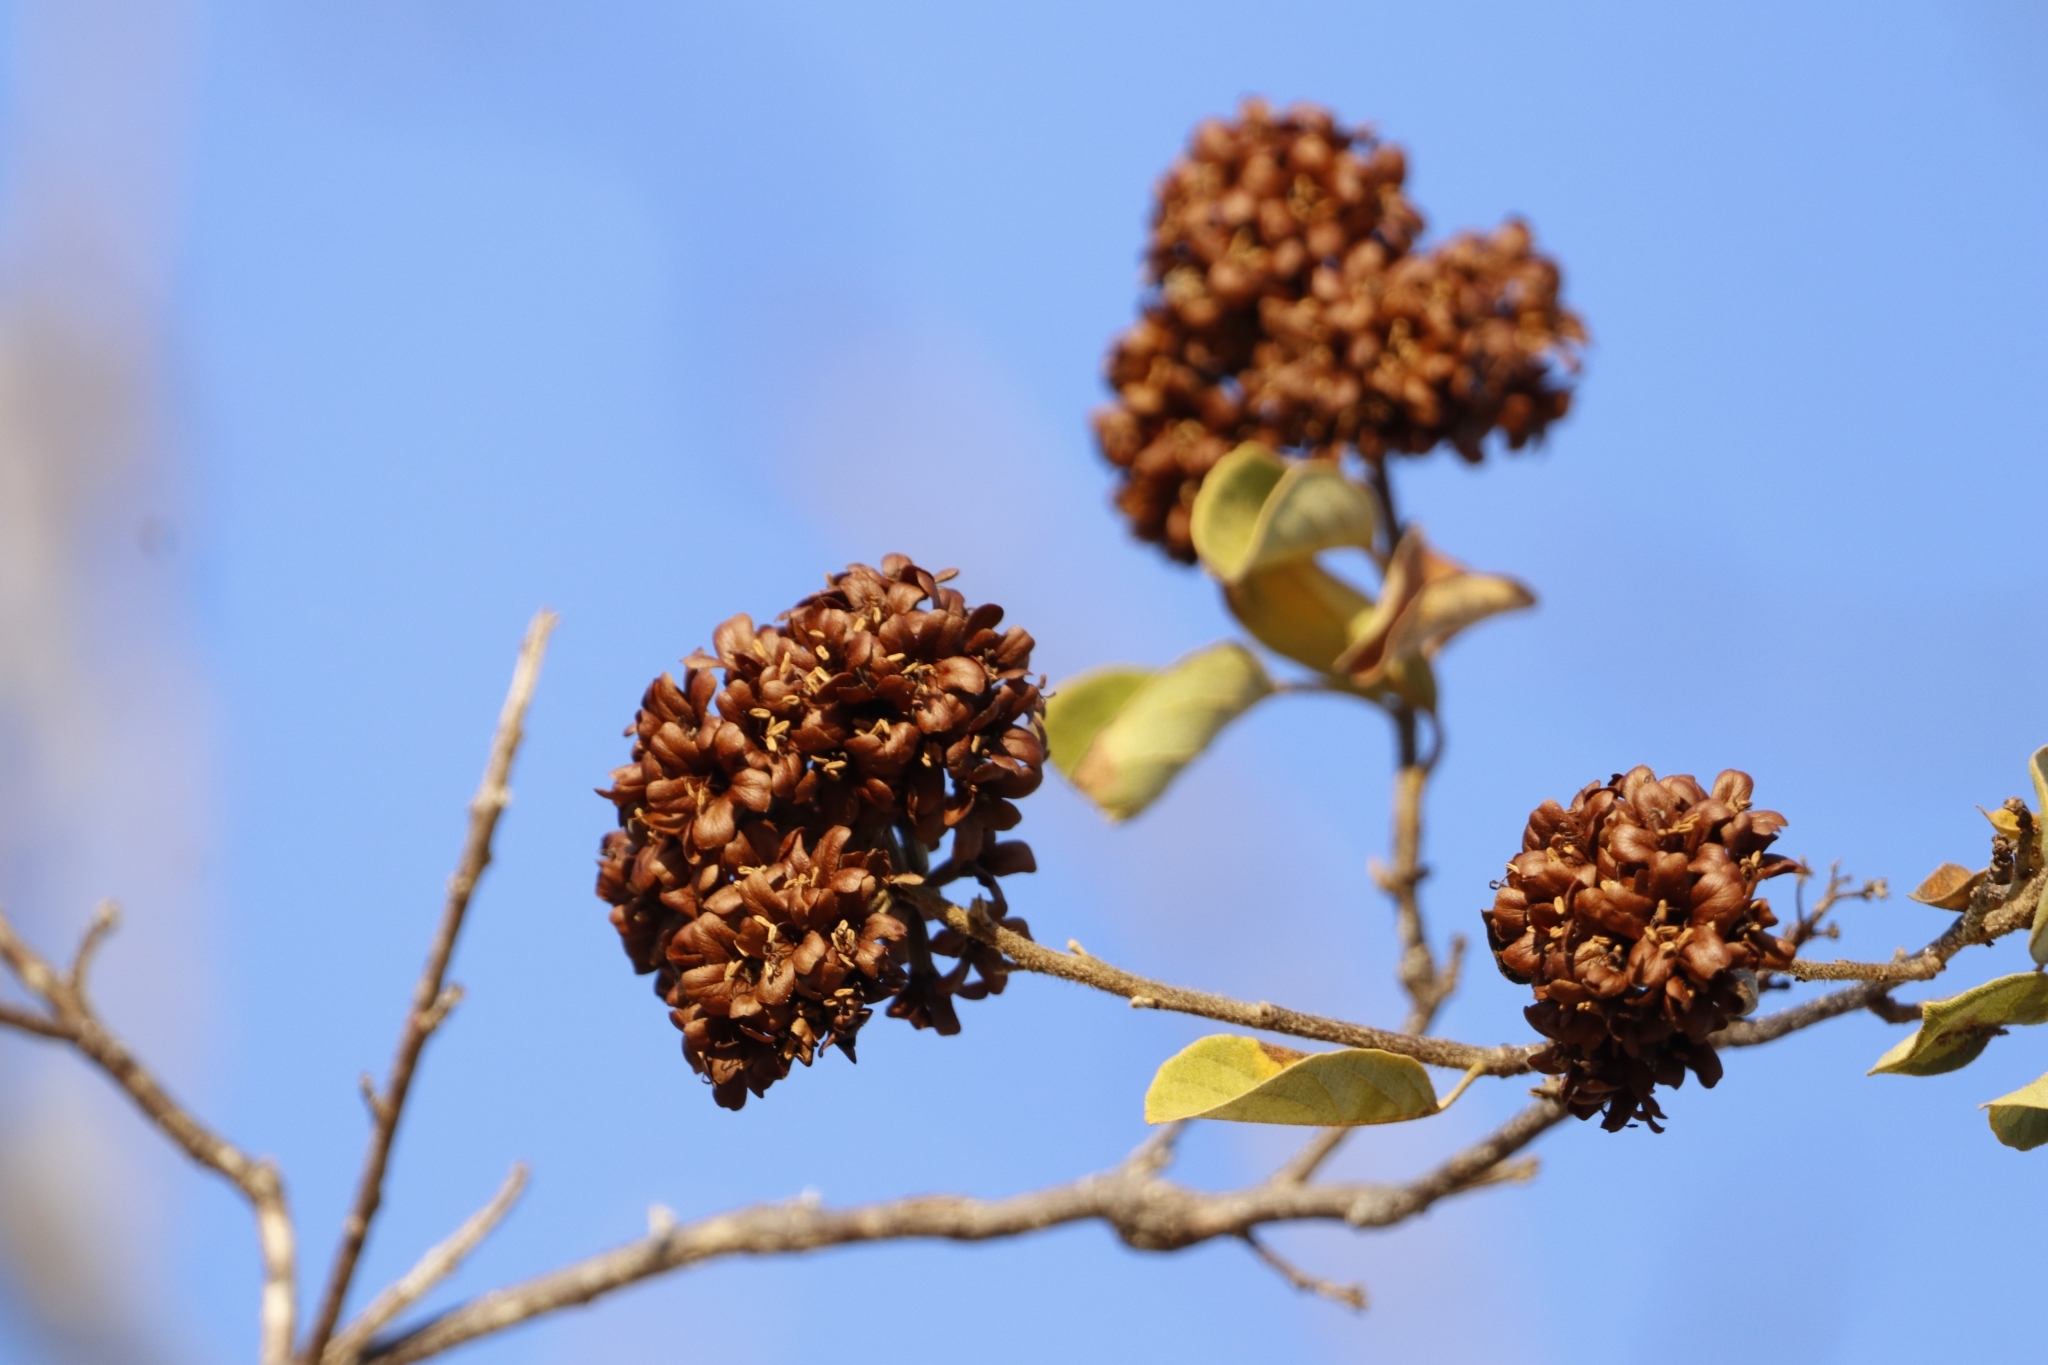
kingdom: Plantae
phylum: Tracheophyta
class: Magnoliopsida
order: Boraginales
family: Cordiaceae
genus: Cordia
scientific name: Cordia glabrata
